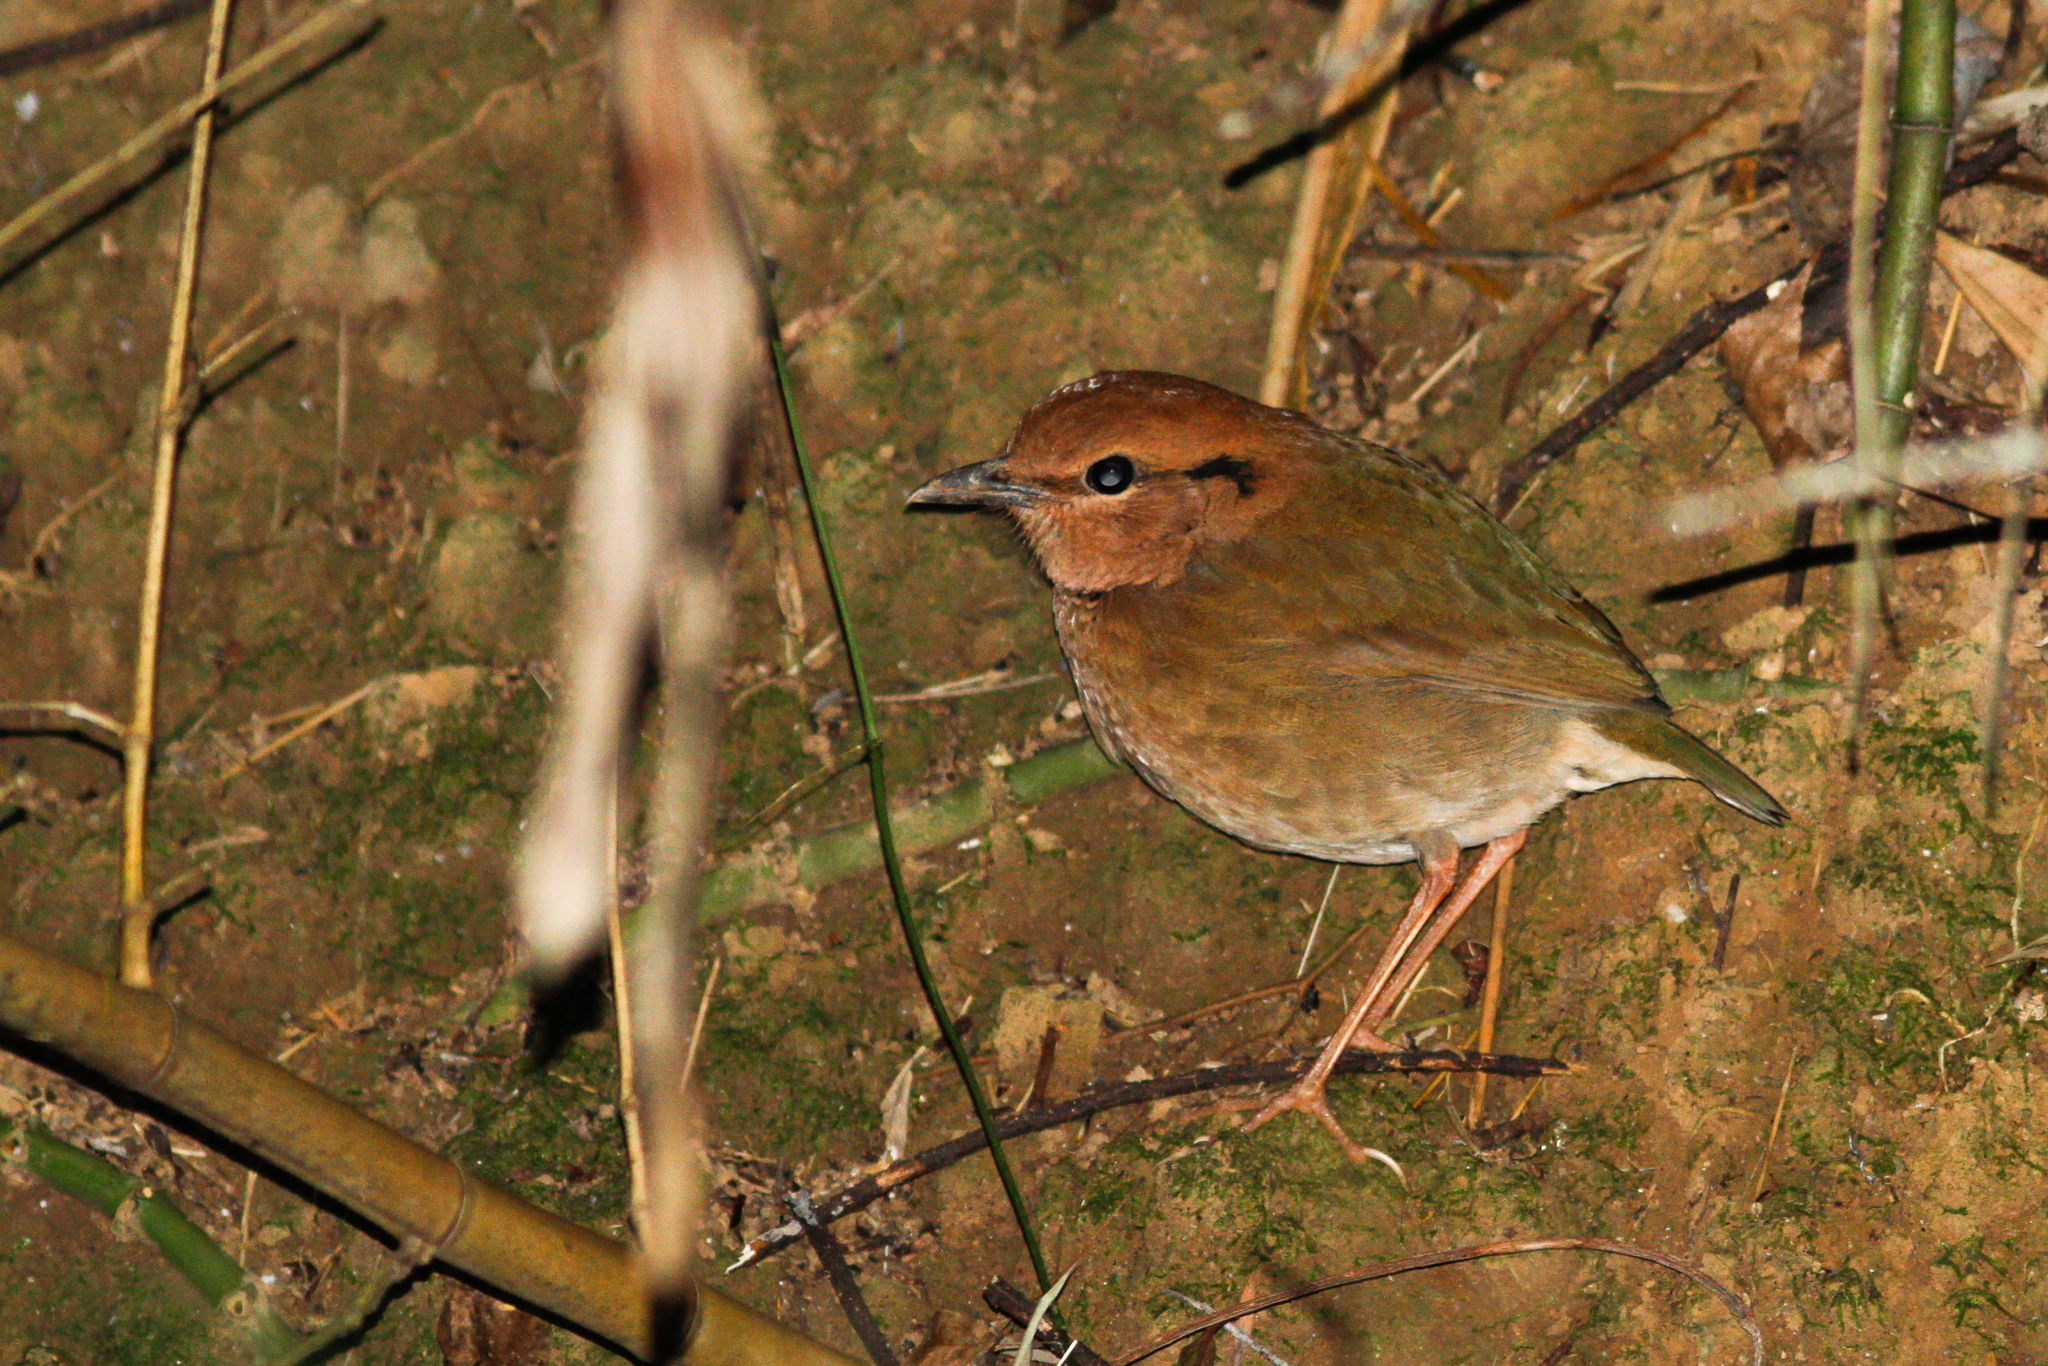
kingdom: Animalia
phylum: Chordata
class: Aves
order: Passeriformes
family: Pittidae
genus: Pitta
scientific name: Pitta oatesi
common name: Rusty-naped pitta
